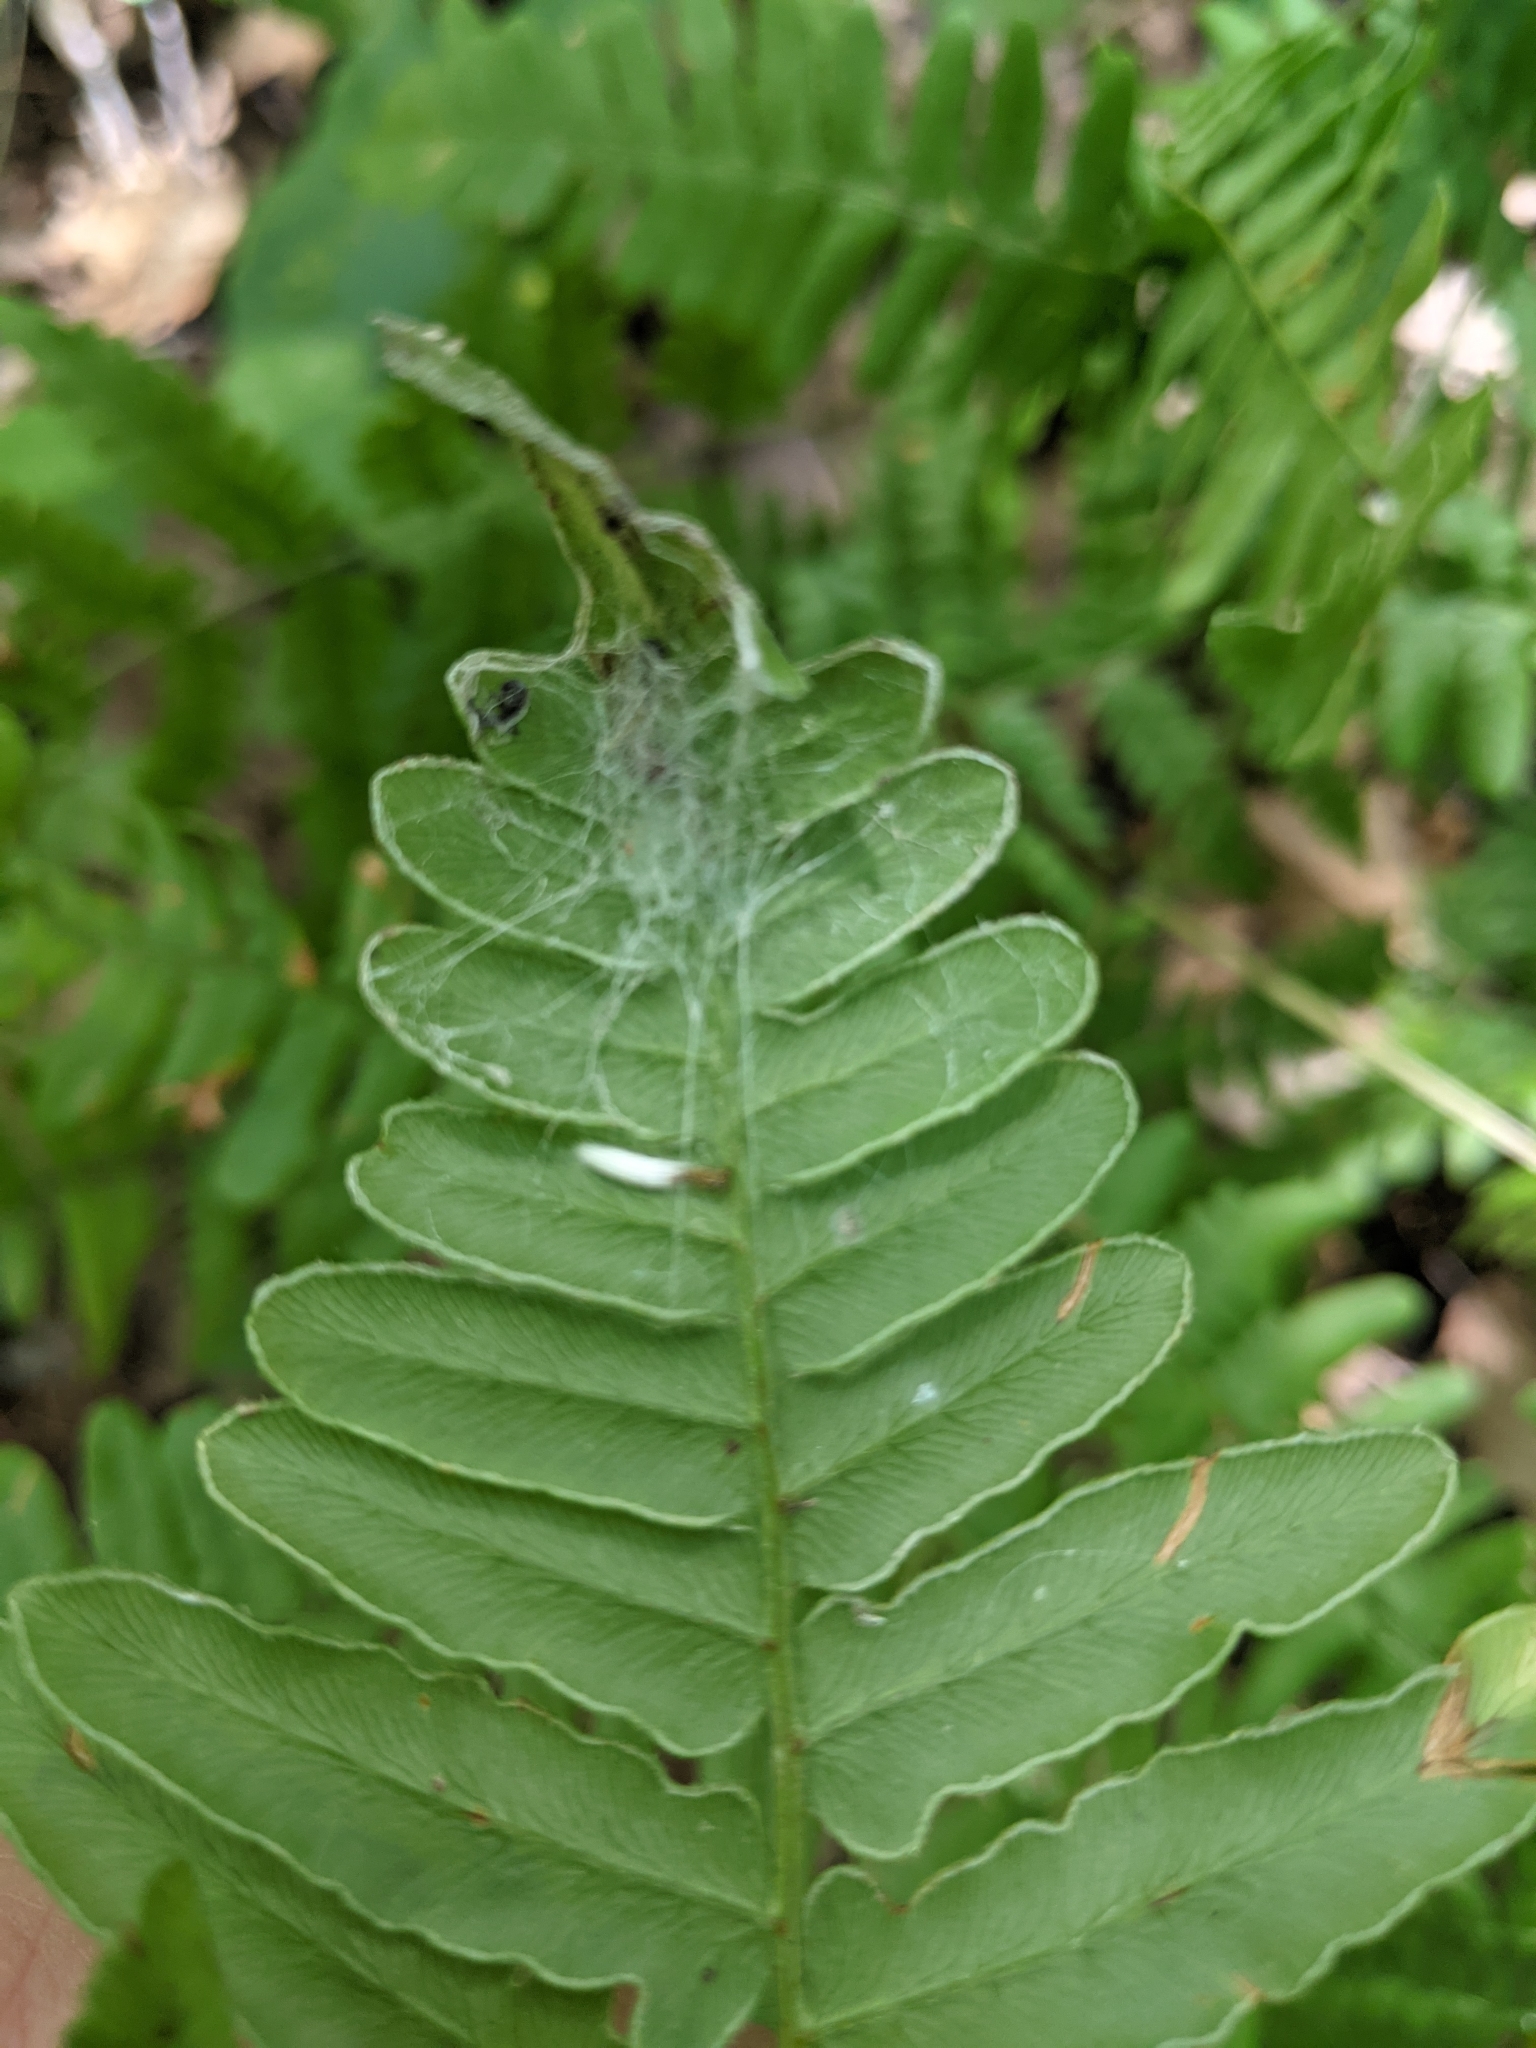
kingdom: Plantae
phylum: Tracheophyta
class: Polypodiopsida
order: Polypodiales
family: Dennstaedtiaceae
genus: Pteridium
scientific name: Pteridium aquilinum
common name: Bracken
